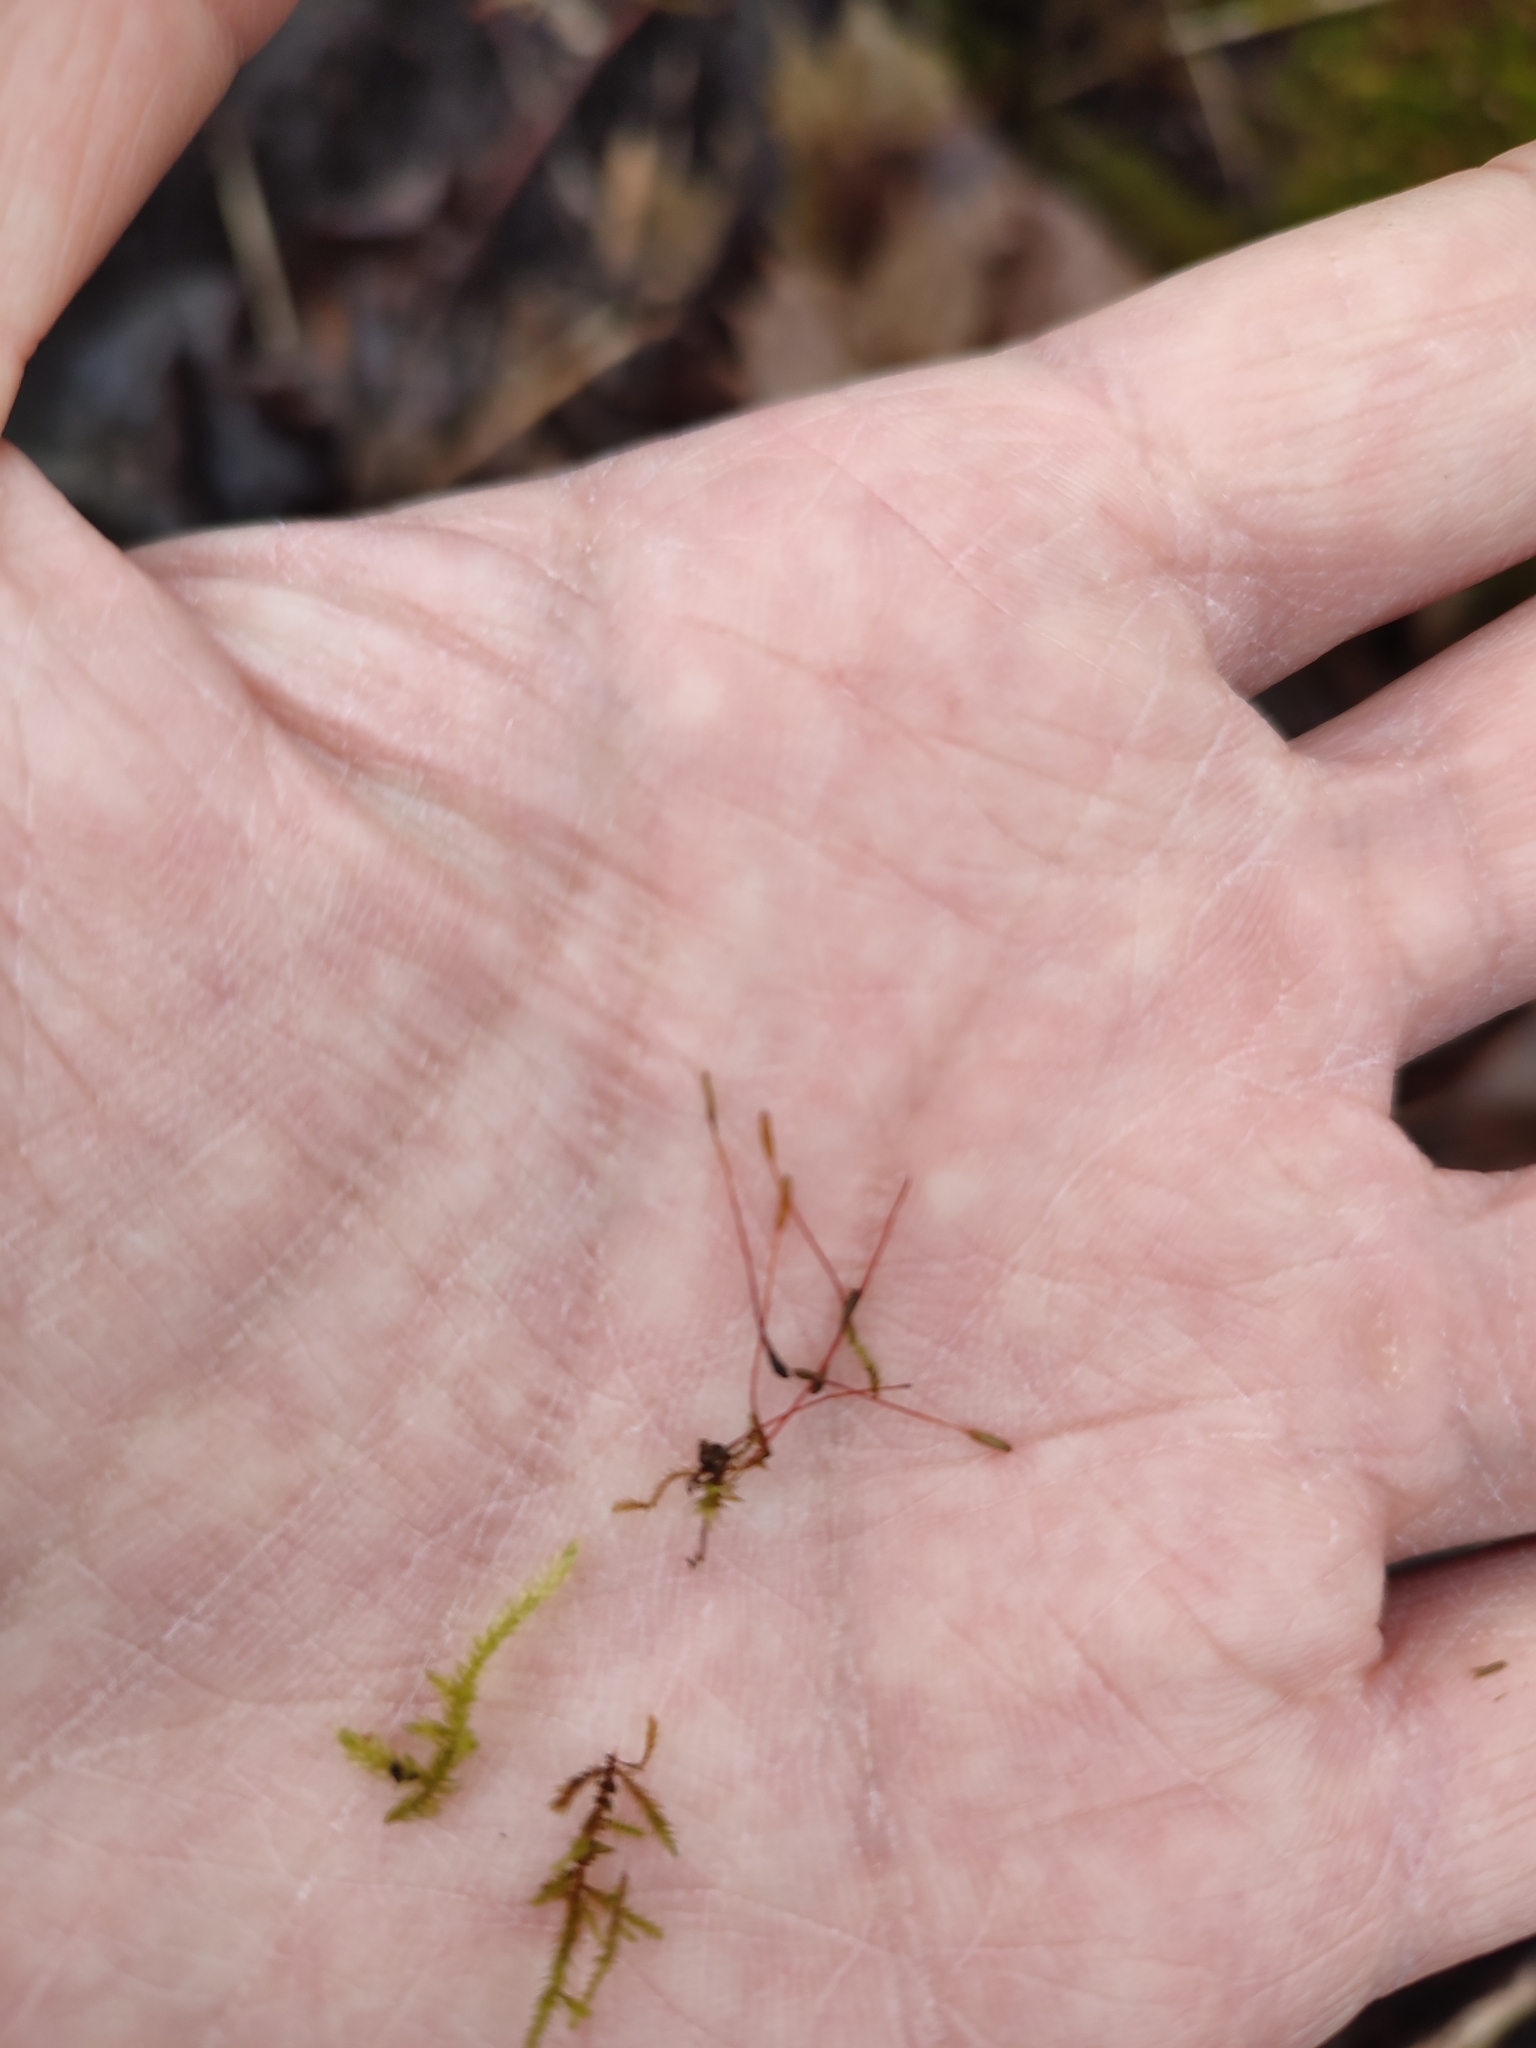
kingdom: Plantae
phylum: Bryophyta
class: Bryopsida
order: Hypnales
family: Amblystegiaceae
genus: Amblystegium
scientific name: Amblystegium serpens
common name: Jurkatzka's feather moss
